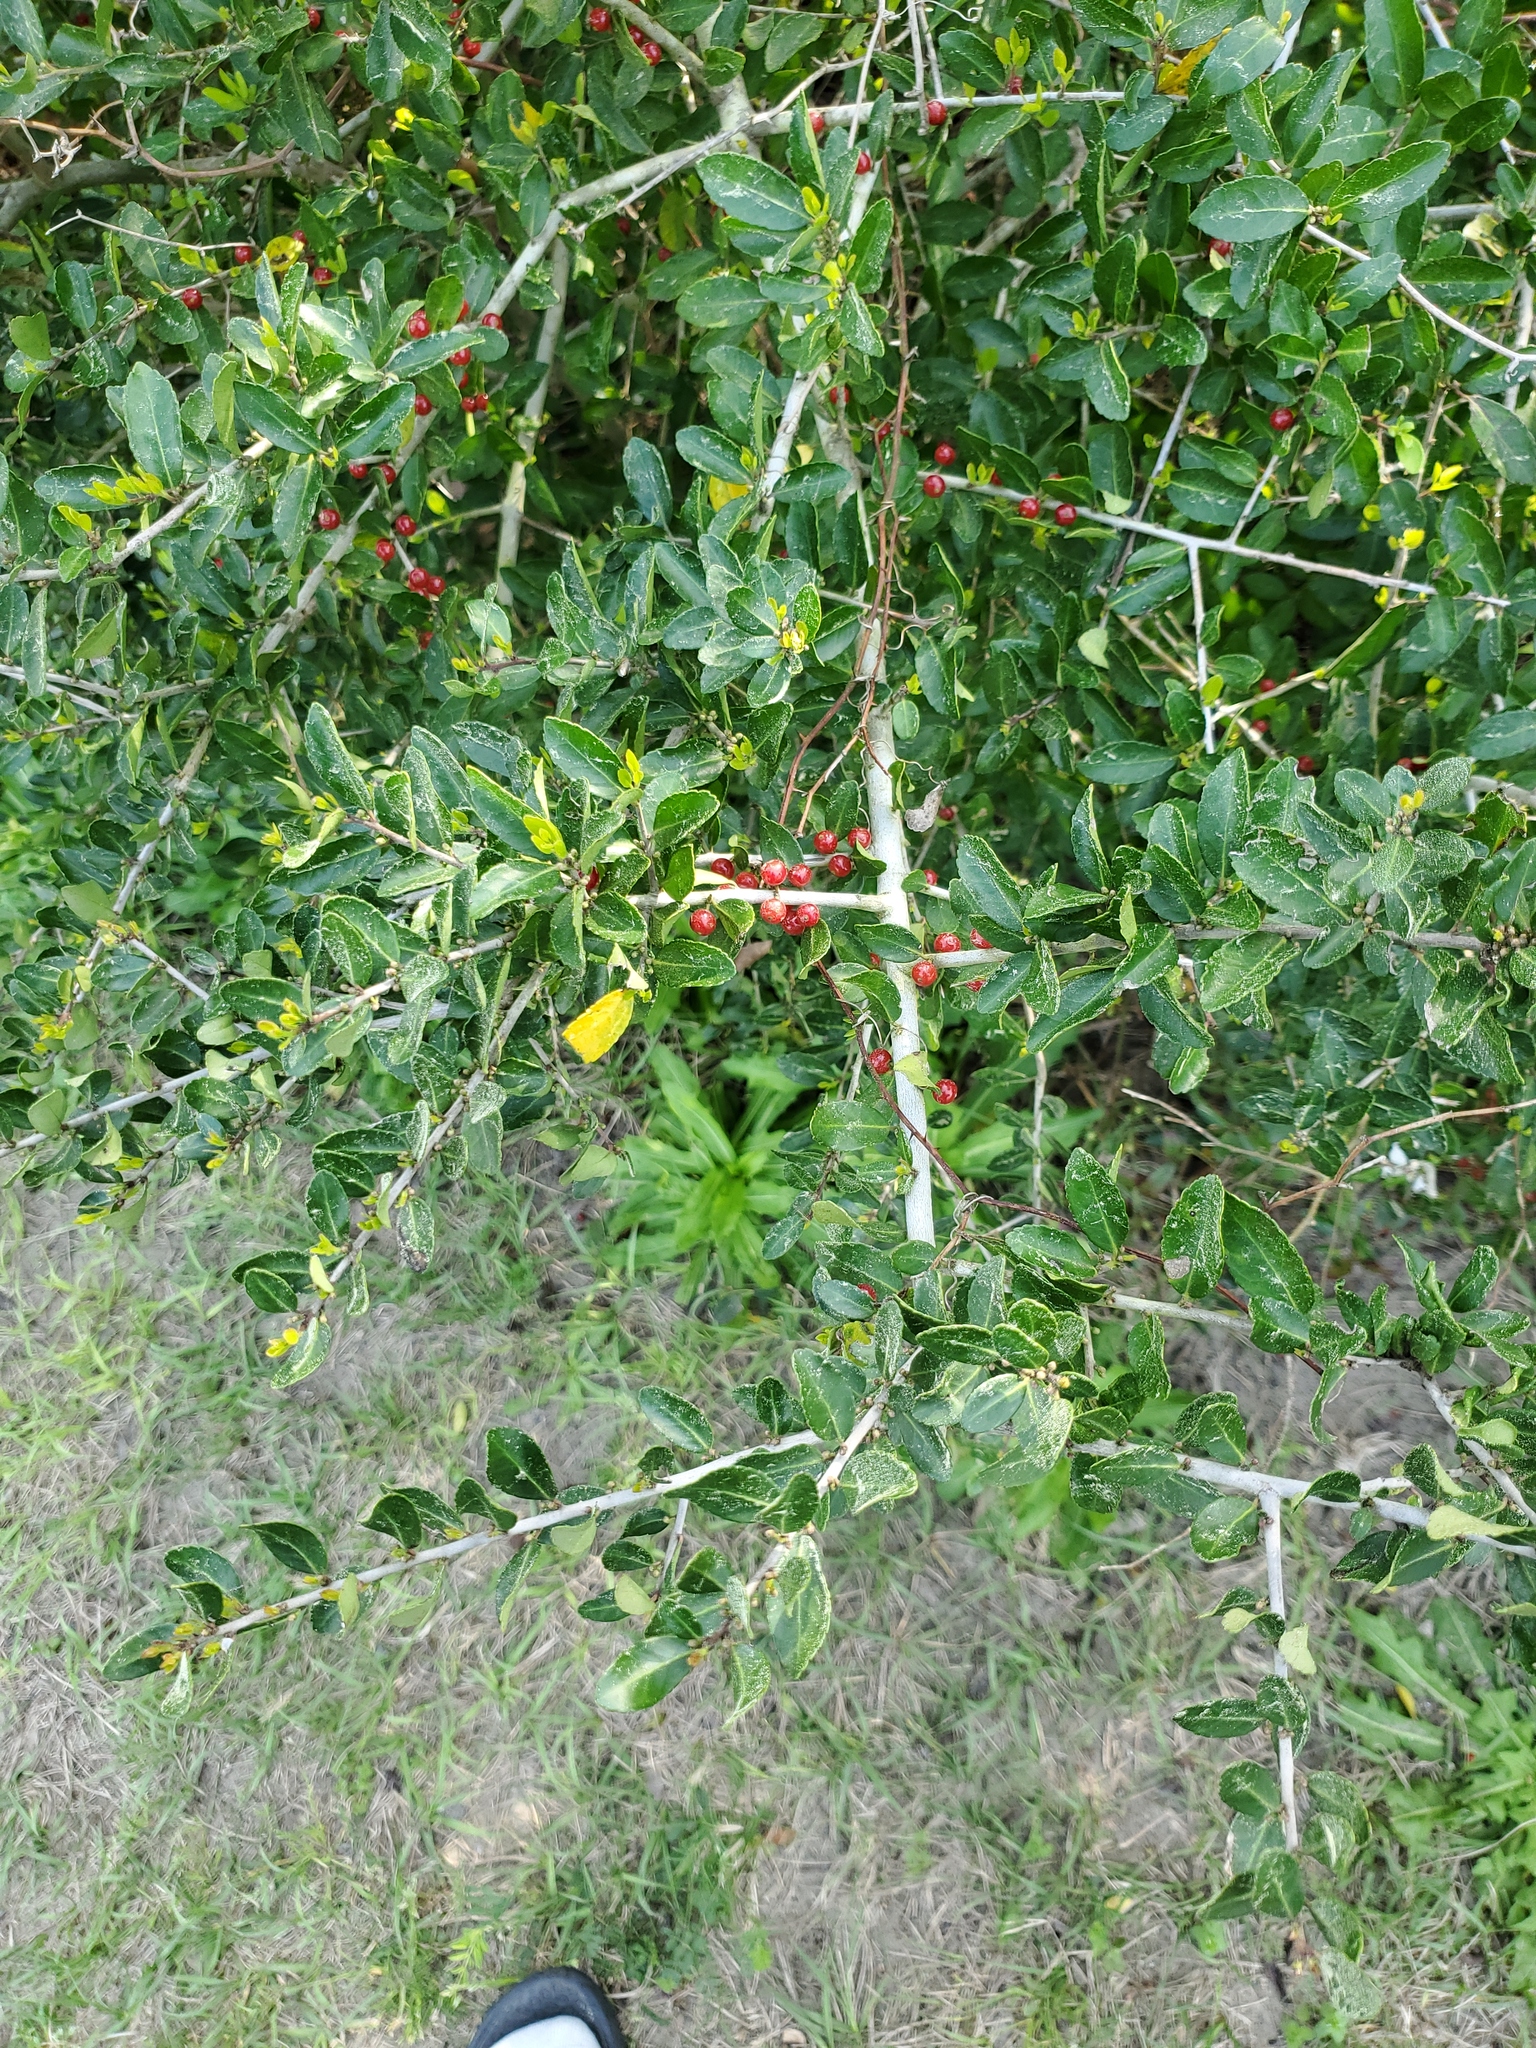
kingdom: Plantae
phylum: Tracheophyta
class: Magnoliopsida
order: Aquifoliales
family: Aquifoliaceae
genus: Ilex
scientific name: Ilex vomitoria
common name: Yaupon holly
